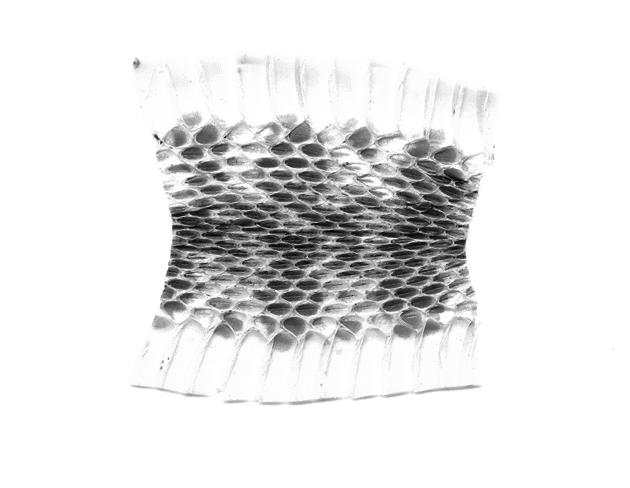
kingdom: Animalia
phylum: Chordata
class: Squamata
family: Colubridae
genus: Rhabdophis
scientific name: Rhabdophis tigrinus
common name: Tiger keelback
